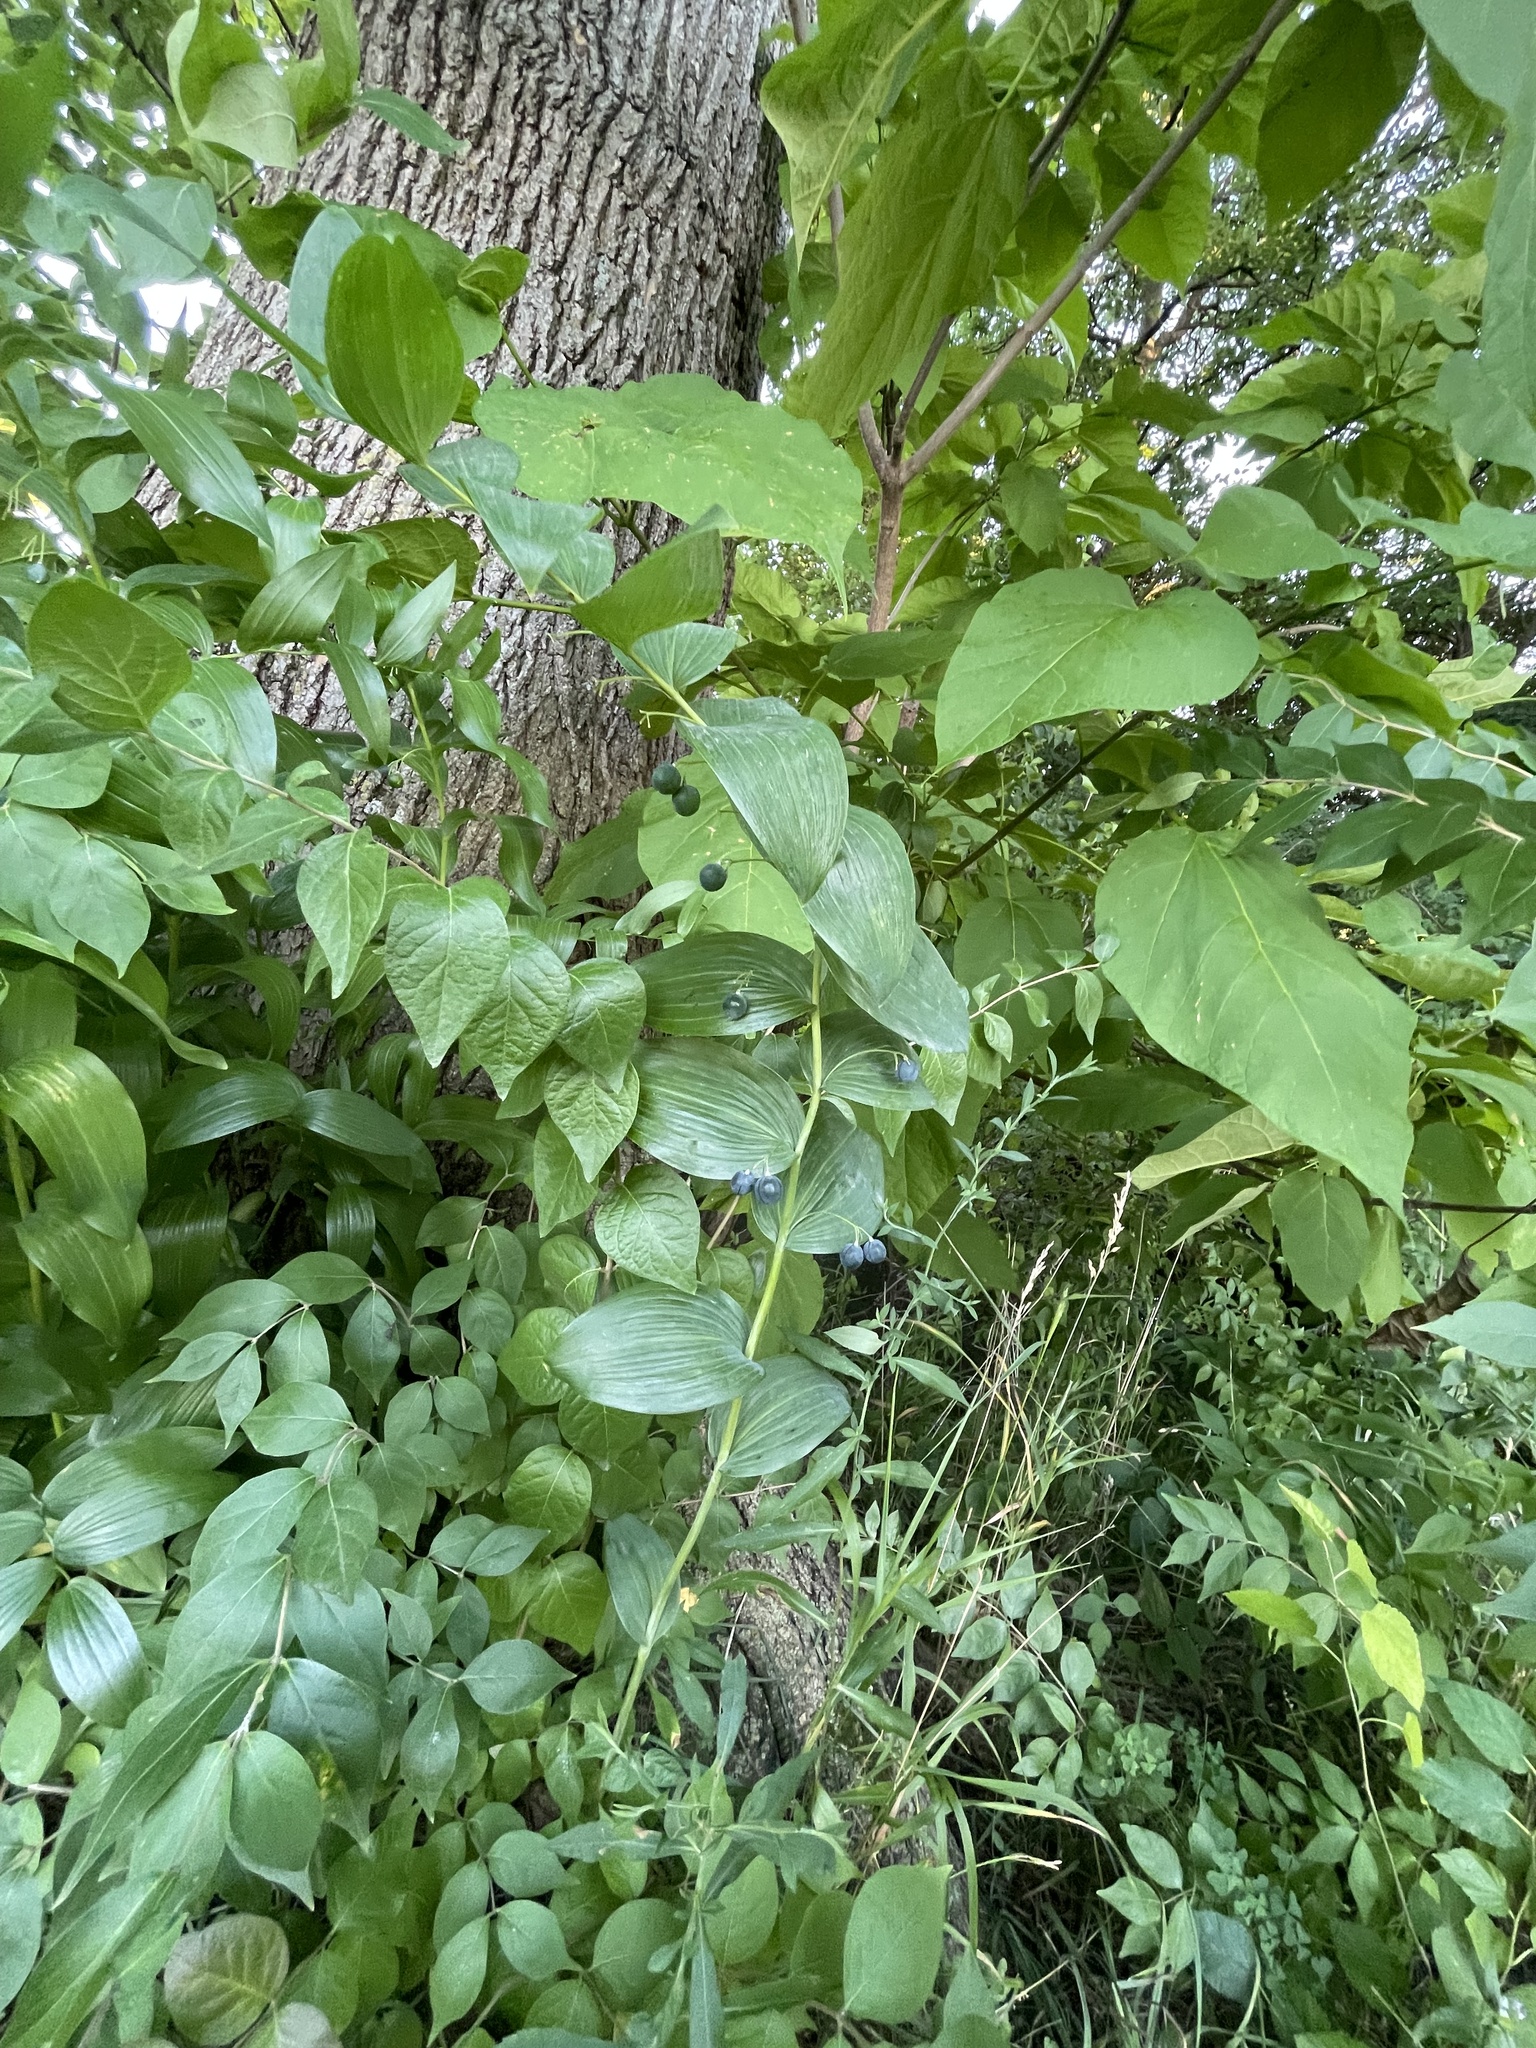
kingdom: Plantae
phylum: Tracheophyta
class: Liliopsida
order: Asparagales
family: Asparagaceae
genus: Polygonatum
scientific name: Polygonatum biflorum
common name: American solomon's-seal
